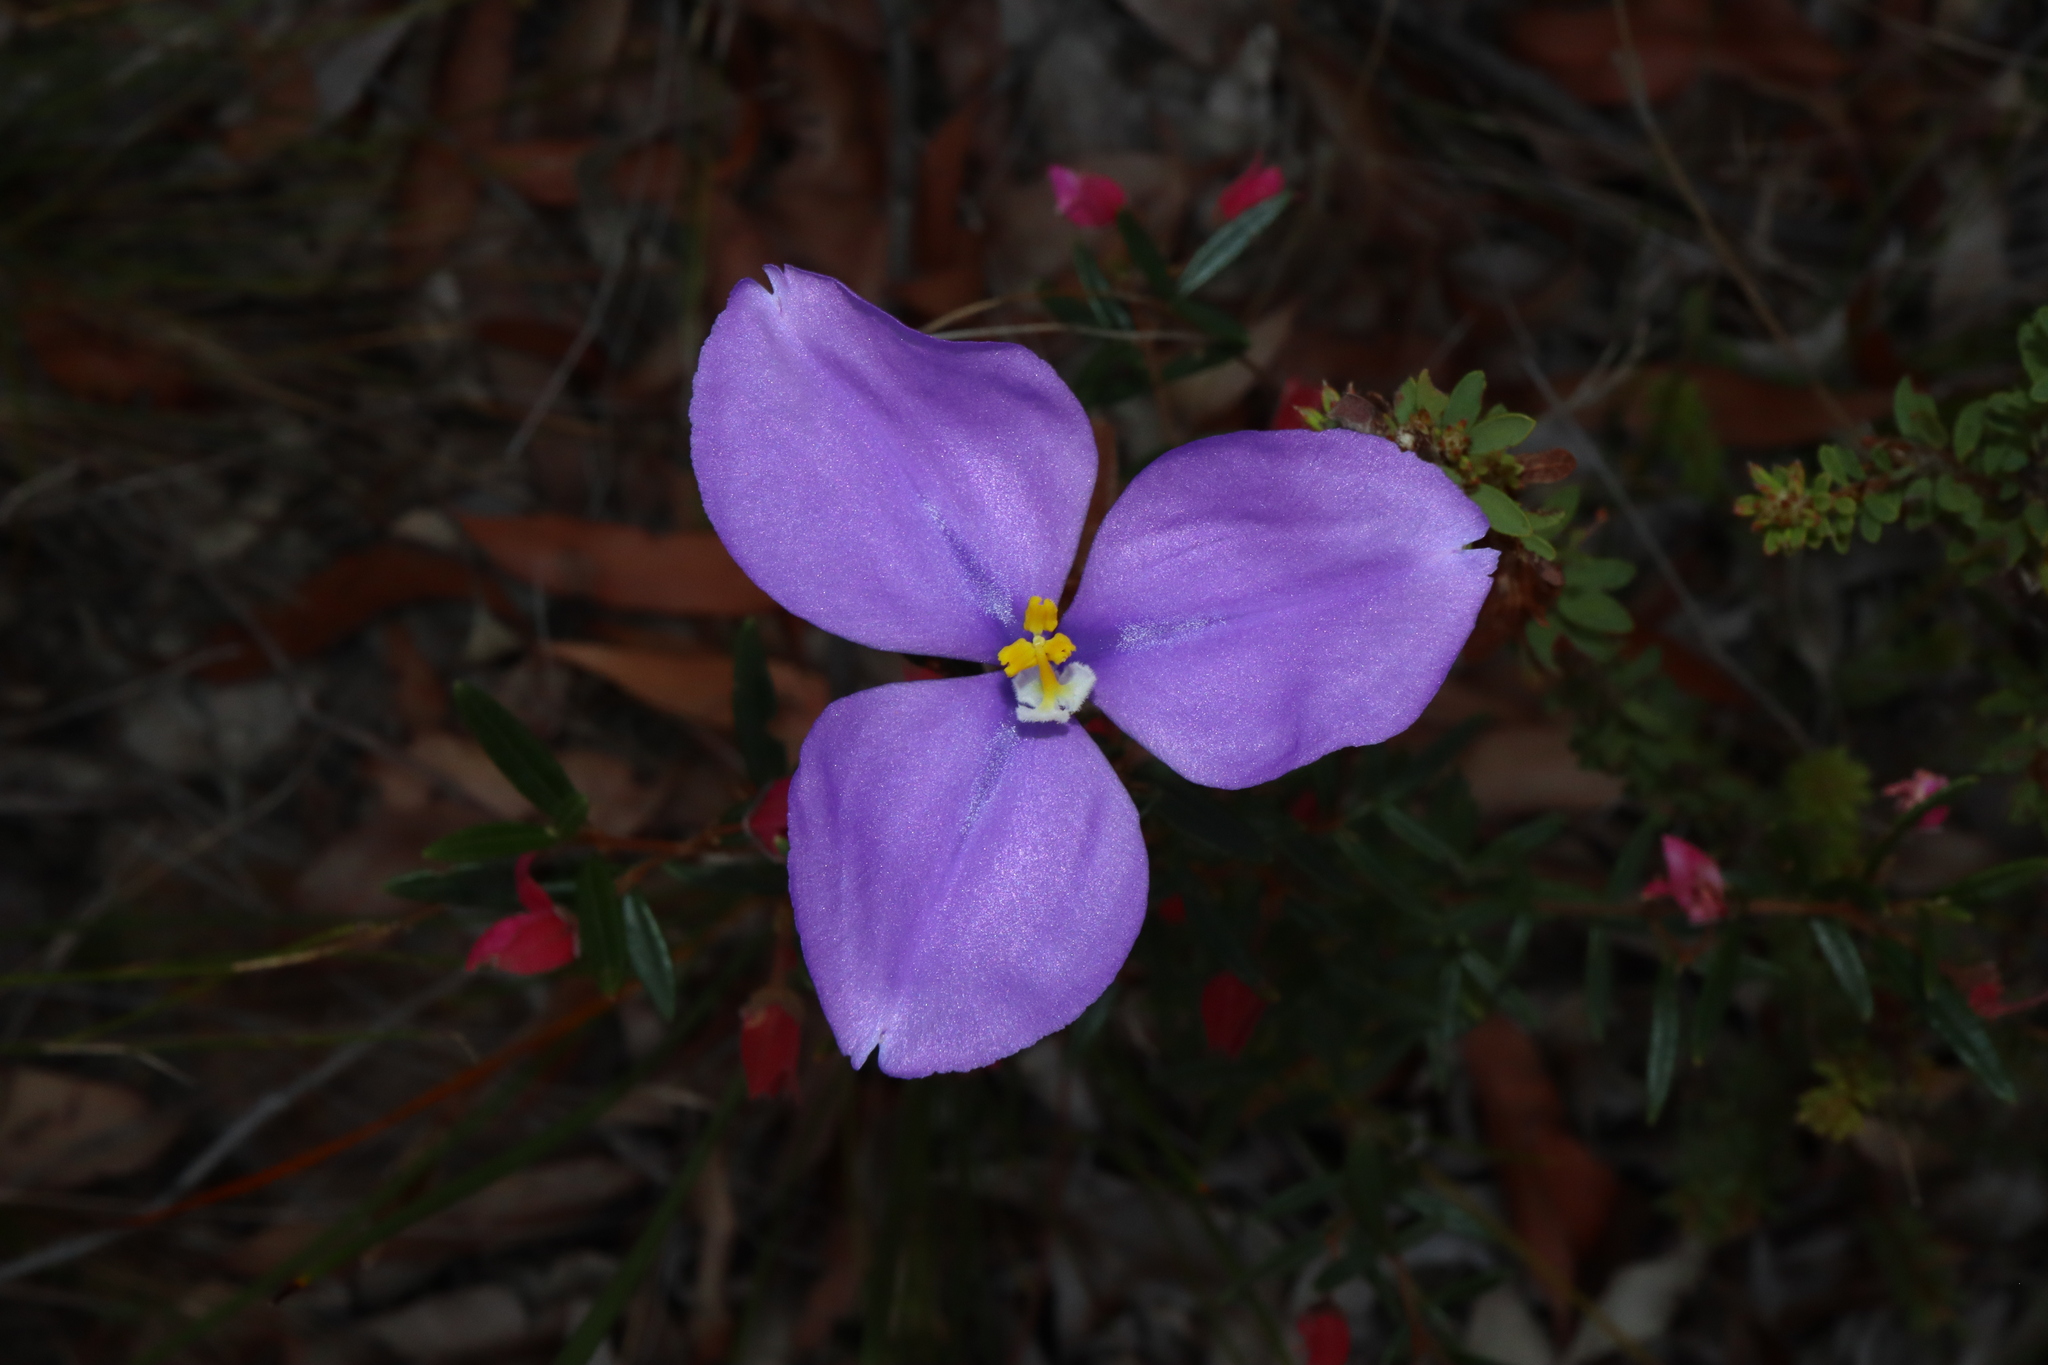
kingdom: Plantae
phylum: Tracheophyta
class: Liliopsida
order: Asparagales
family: Iridaceae
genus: Patersonia
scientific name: Patersonia sericea
